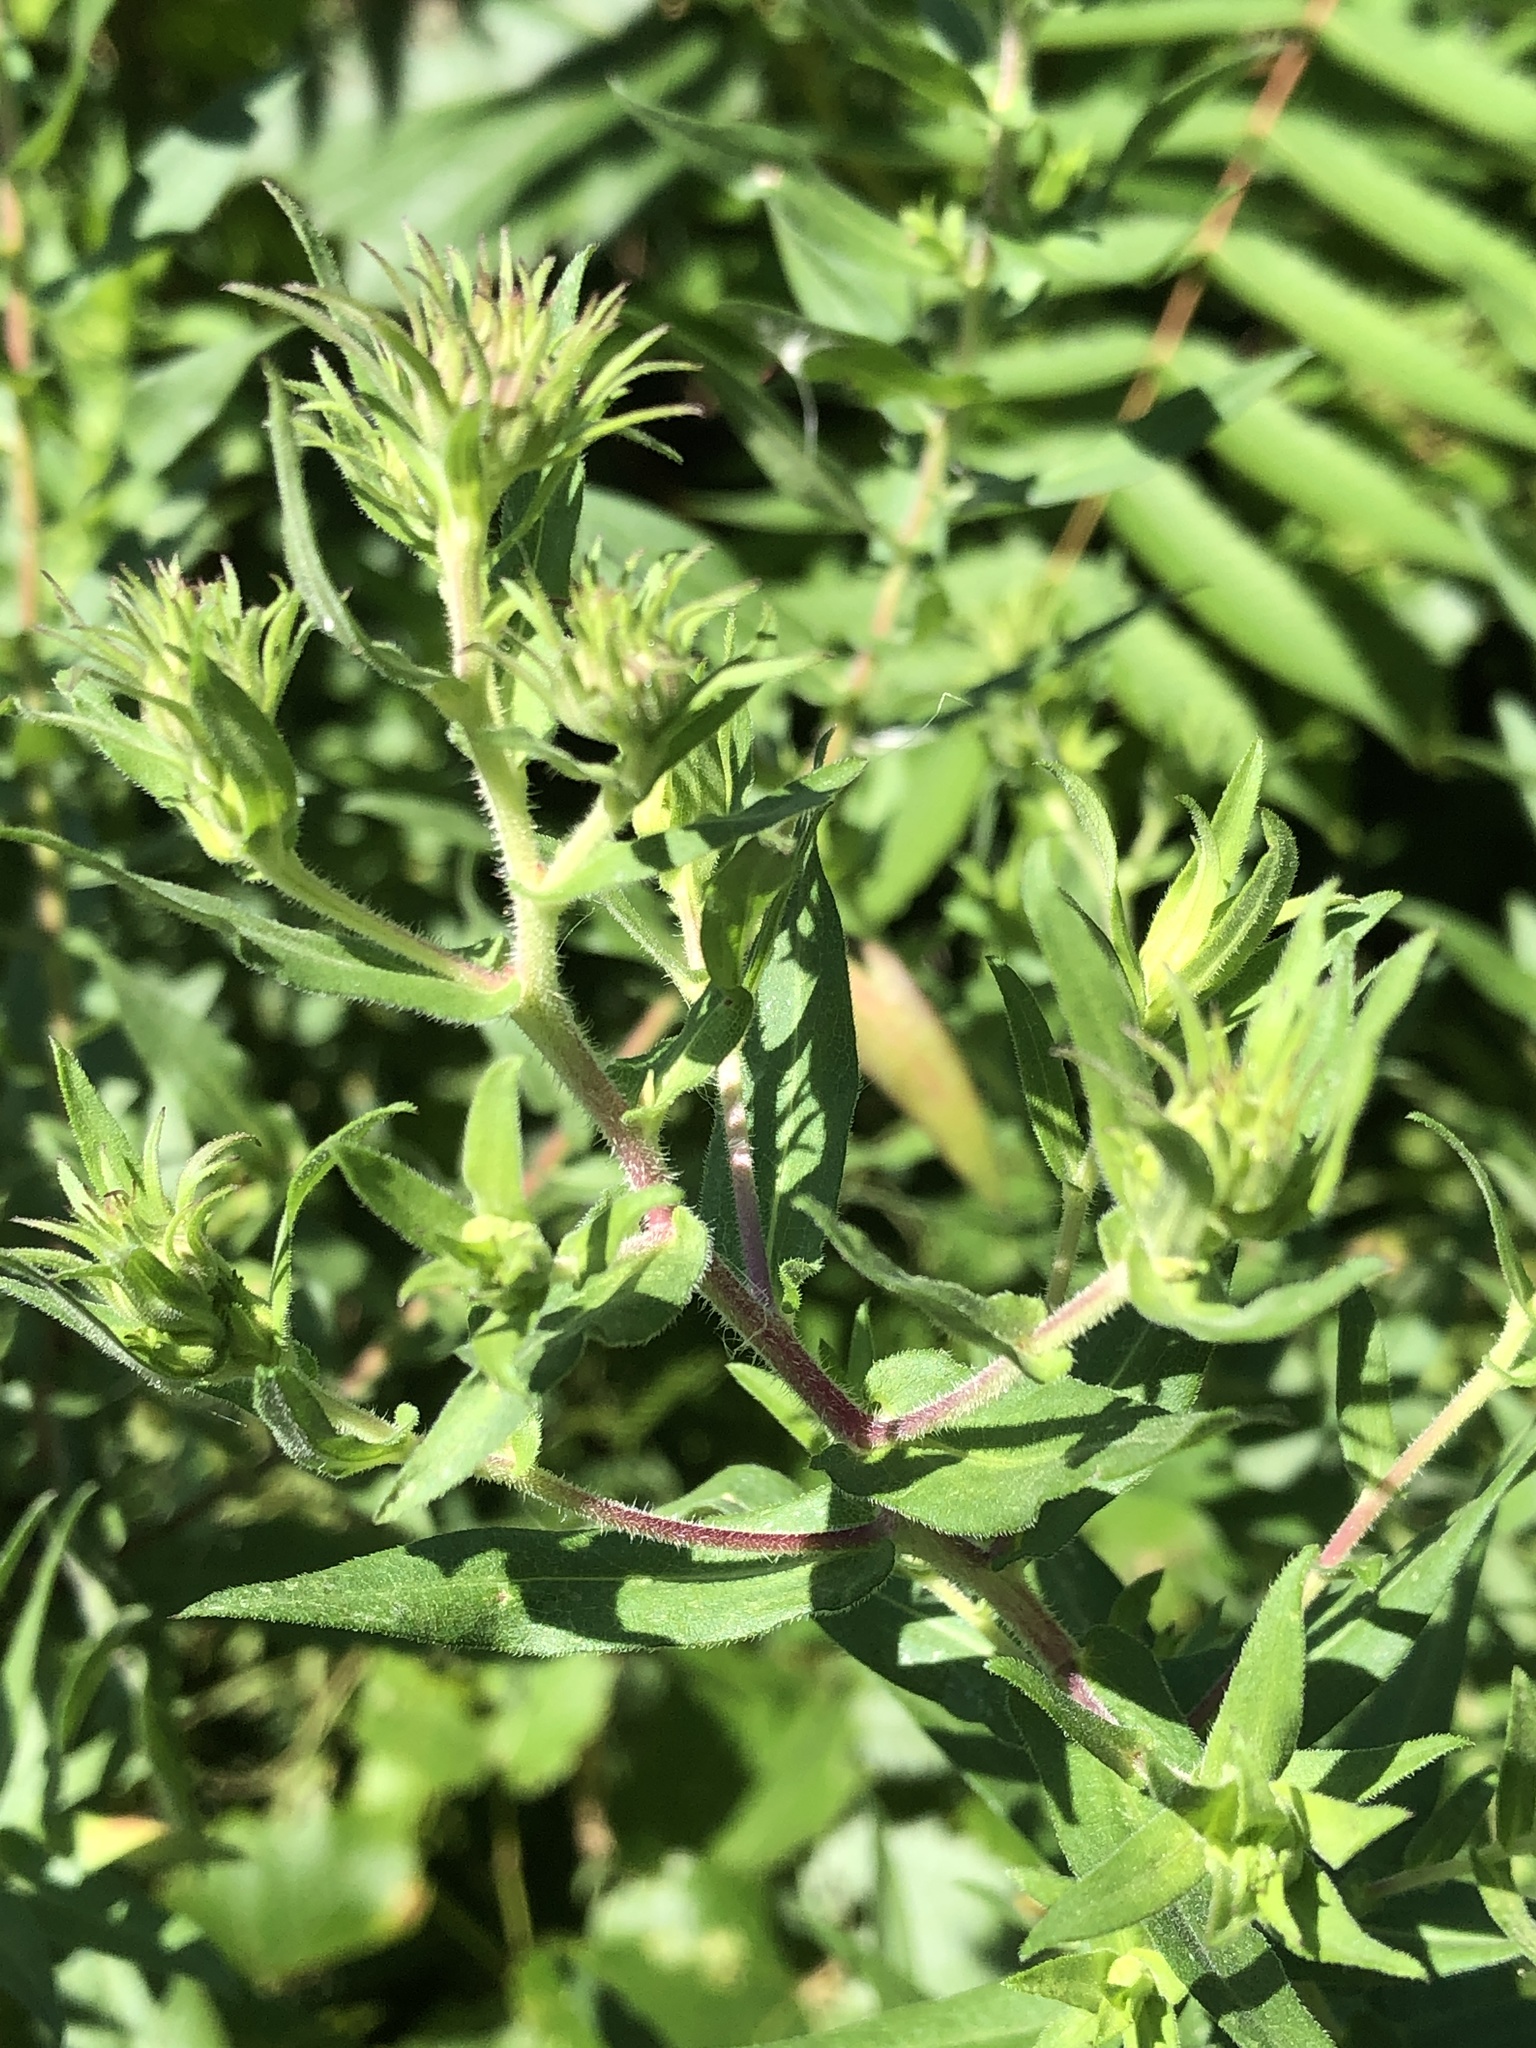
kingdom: Plantae
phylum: Tracheophyta
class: Magnoliopsida
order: Asterales
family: Asteraceae
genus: Symphyotrichum
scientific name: Symphyotrichum novae-angliae
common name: Michaelmas daisy
